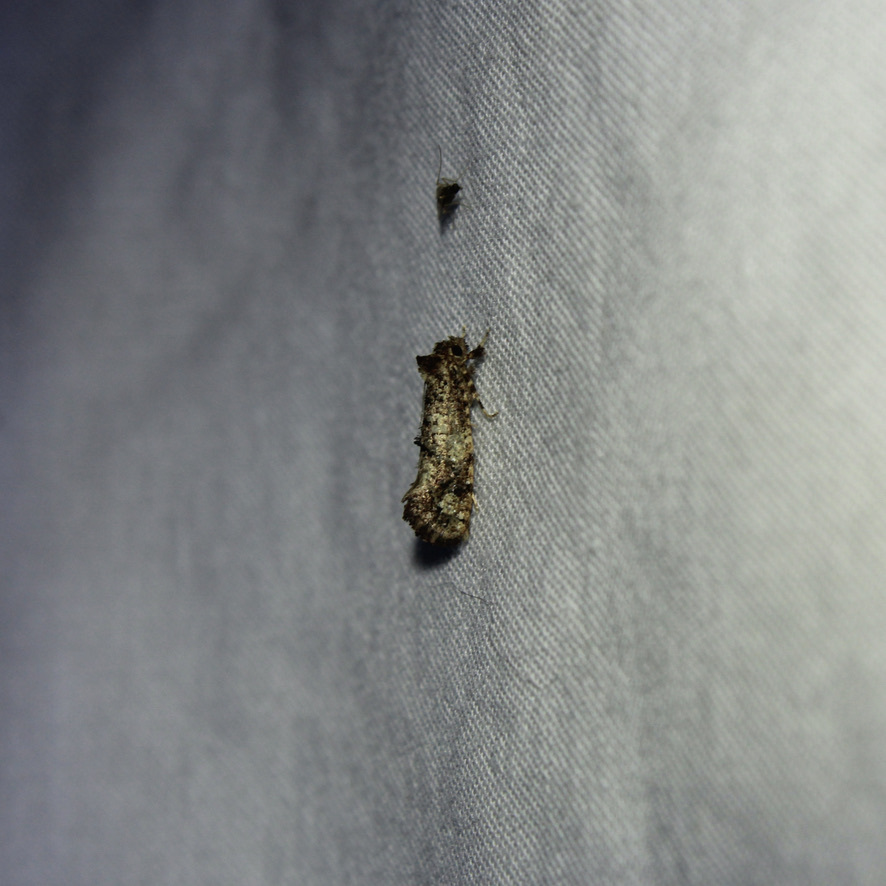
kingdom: Animalia
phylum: Arthropoda
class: Insecta
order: Lepidoptera
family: Tineidae
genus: Acrolophus
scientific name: Acrolophus cressoni
